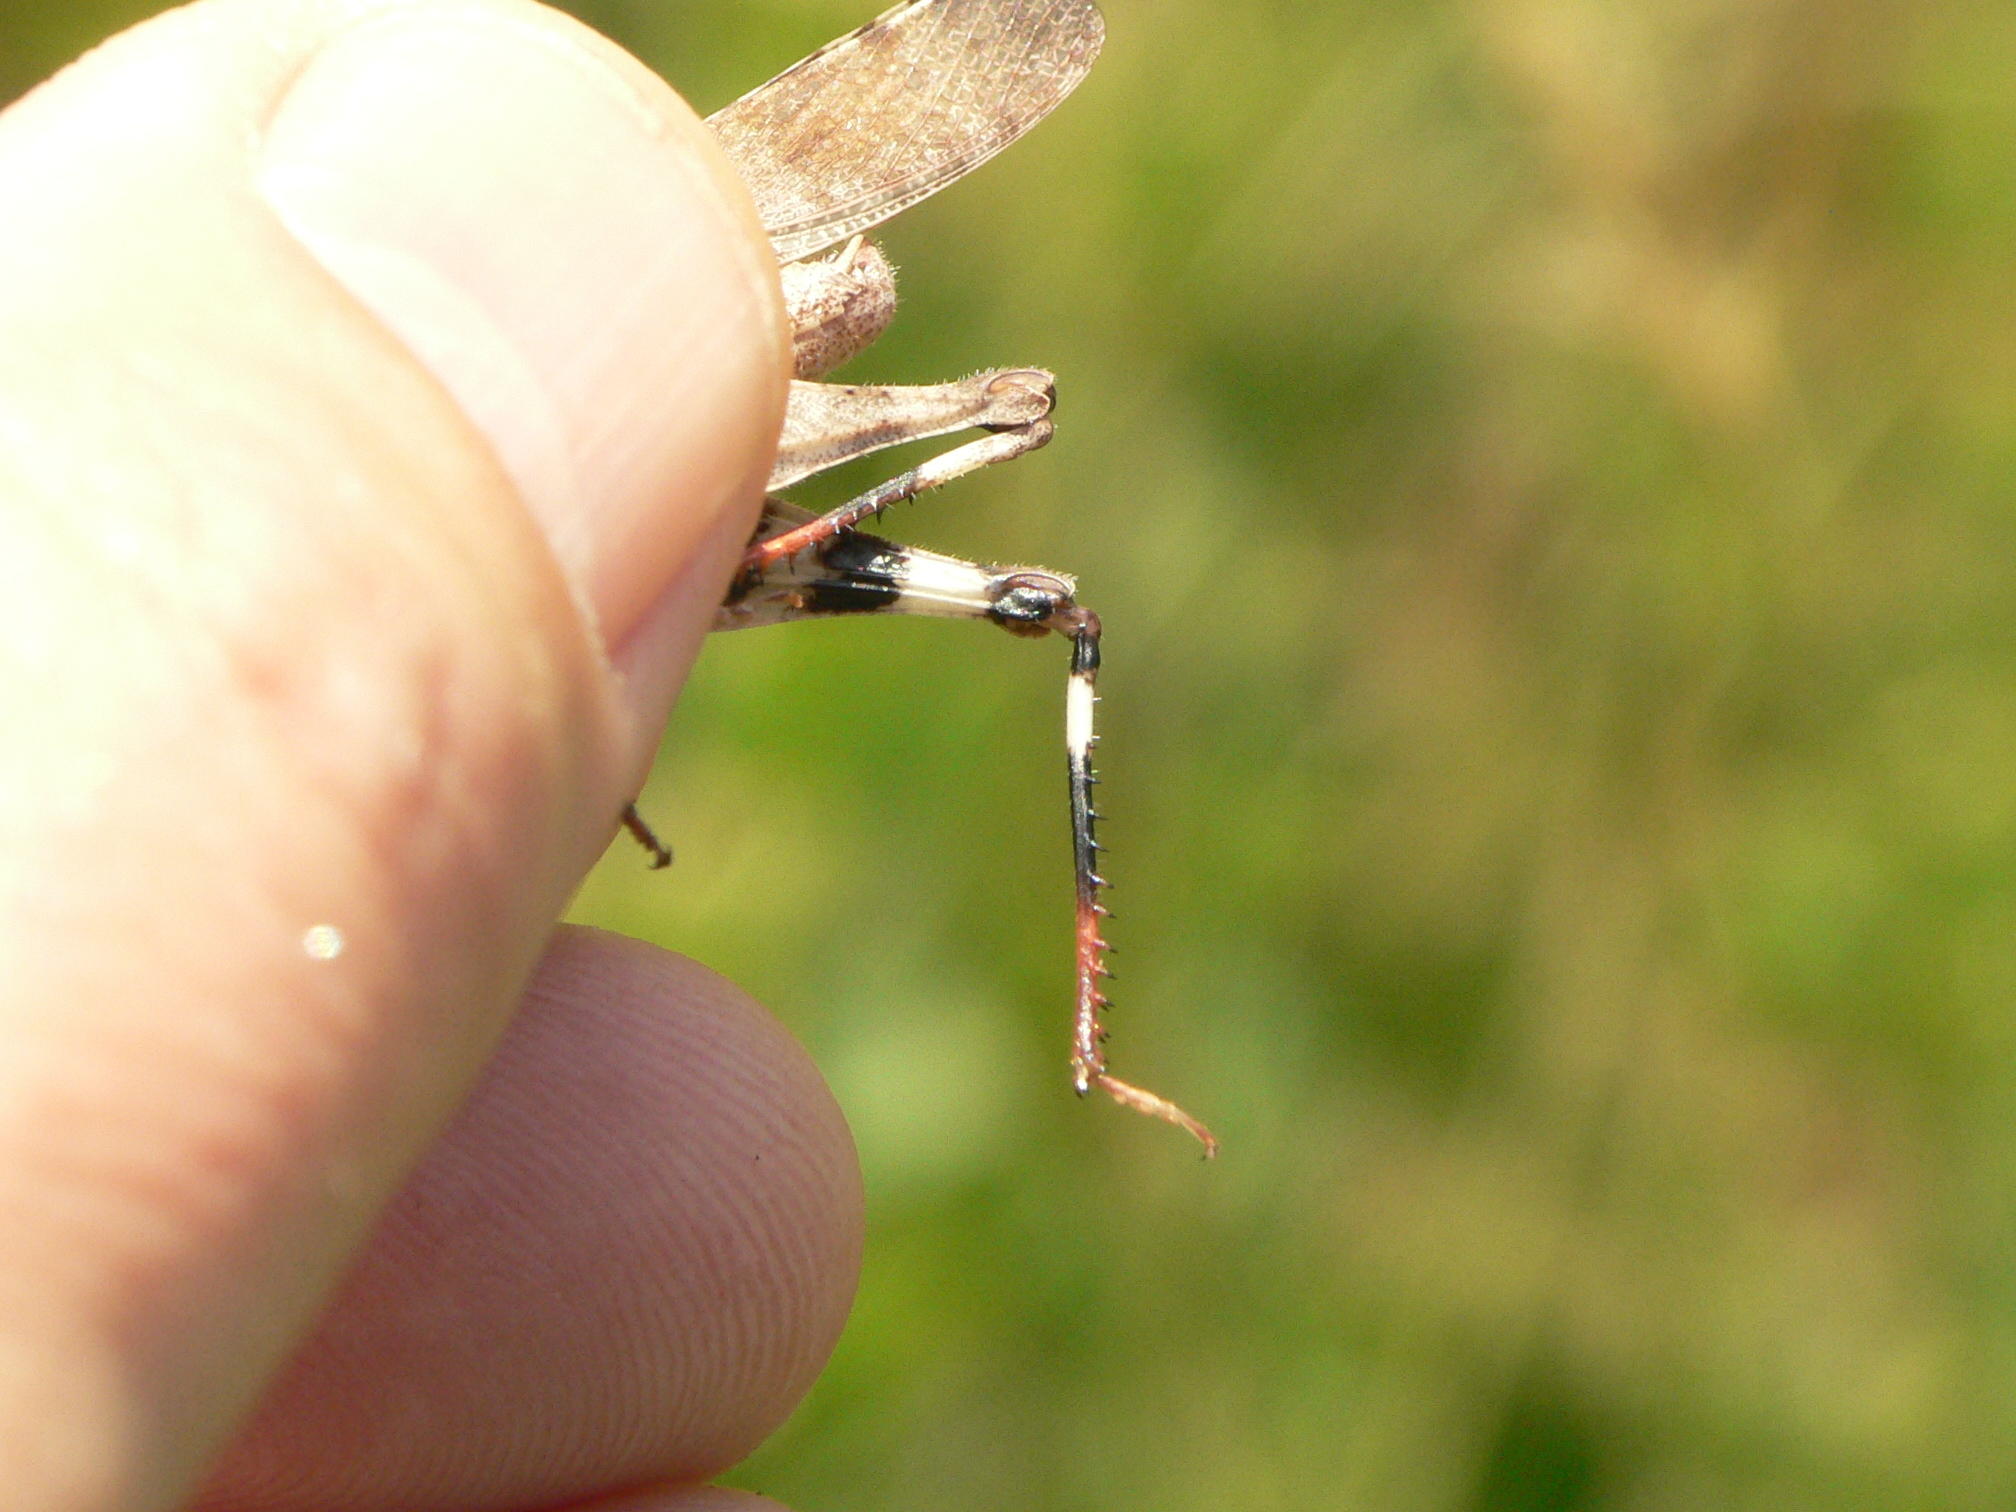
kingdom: Animalia
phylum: Arthropoda
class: Insecta
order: Orthoptera
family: Acrididae
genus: Spharagemon
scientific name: Spharagemon bolli
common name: Boll's grasshopper
